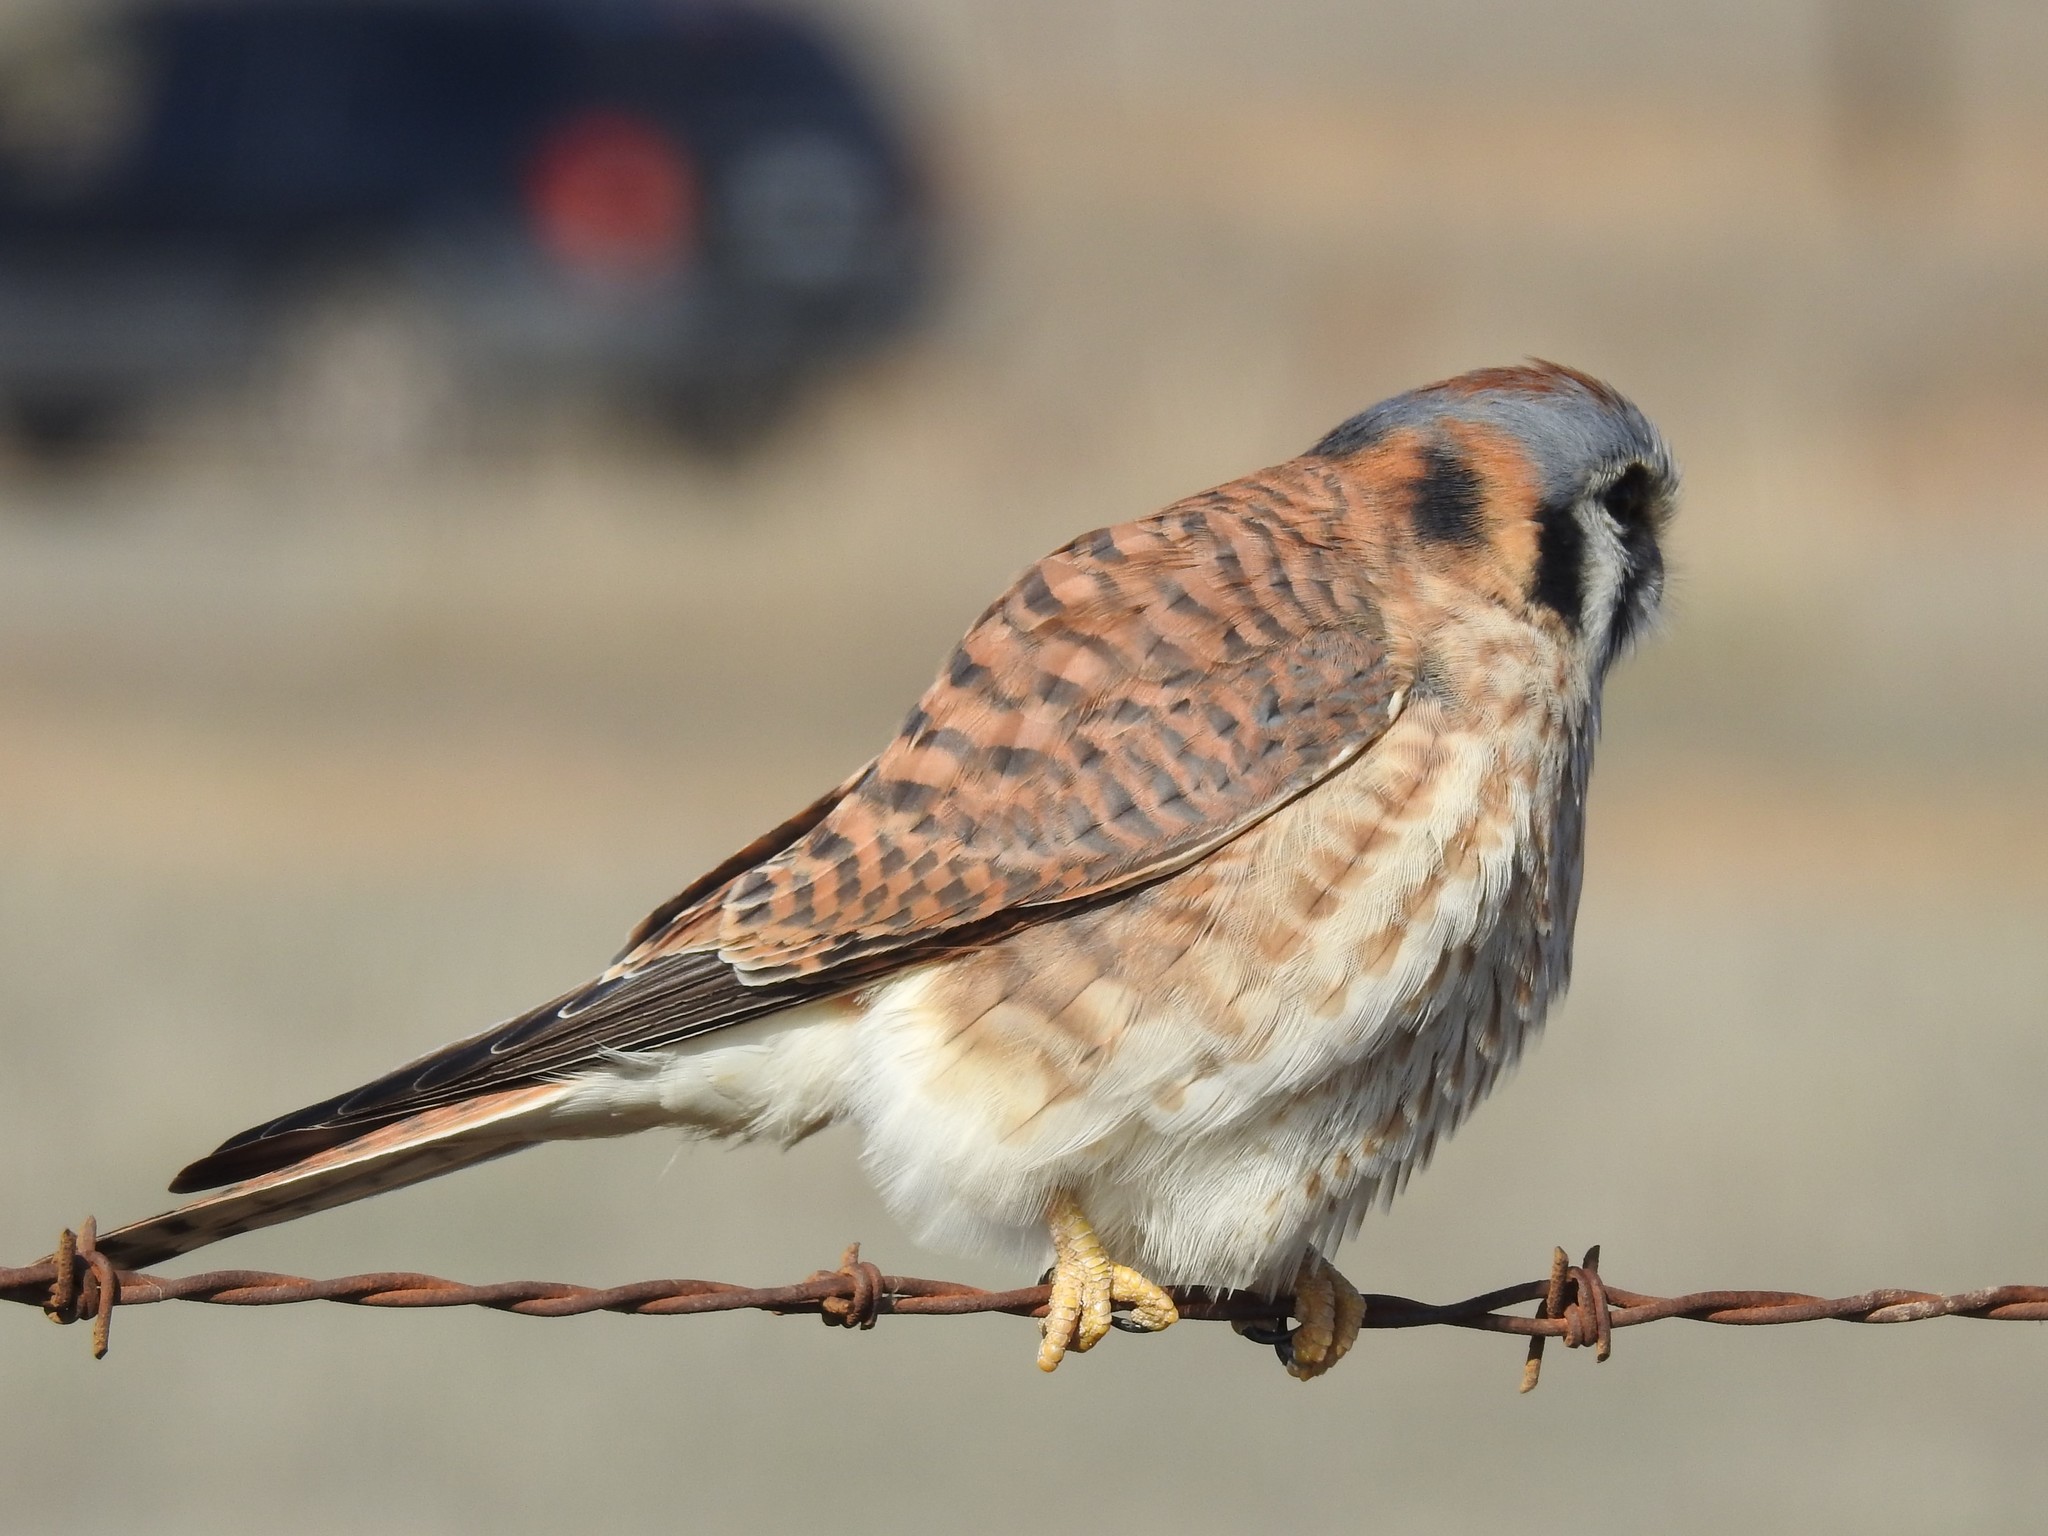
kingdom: Animalia
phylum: Chordata
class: Aves
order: Falconiformes
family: Falconidae
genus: Falco
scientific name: Falco sparverius
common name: American kestrel
